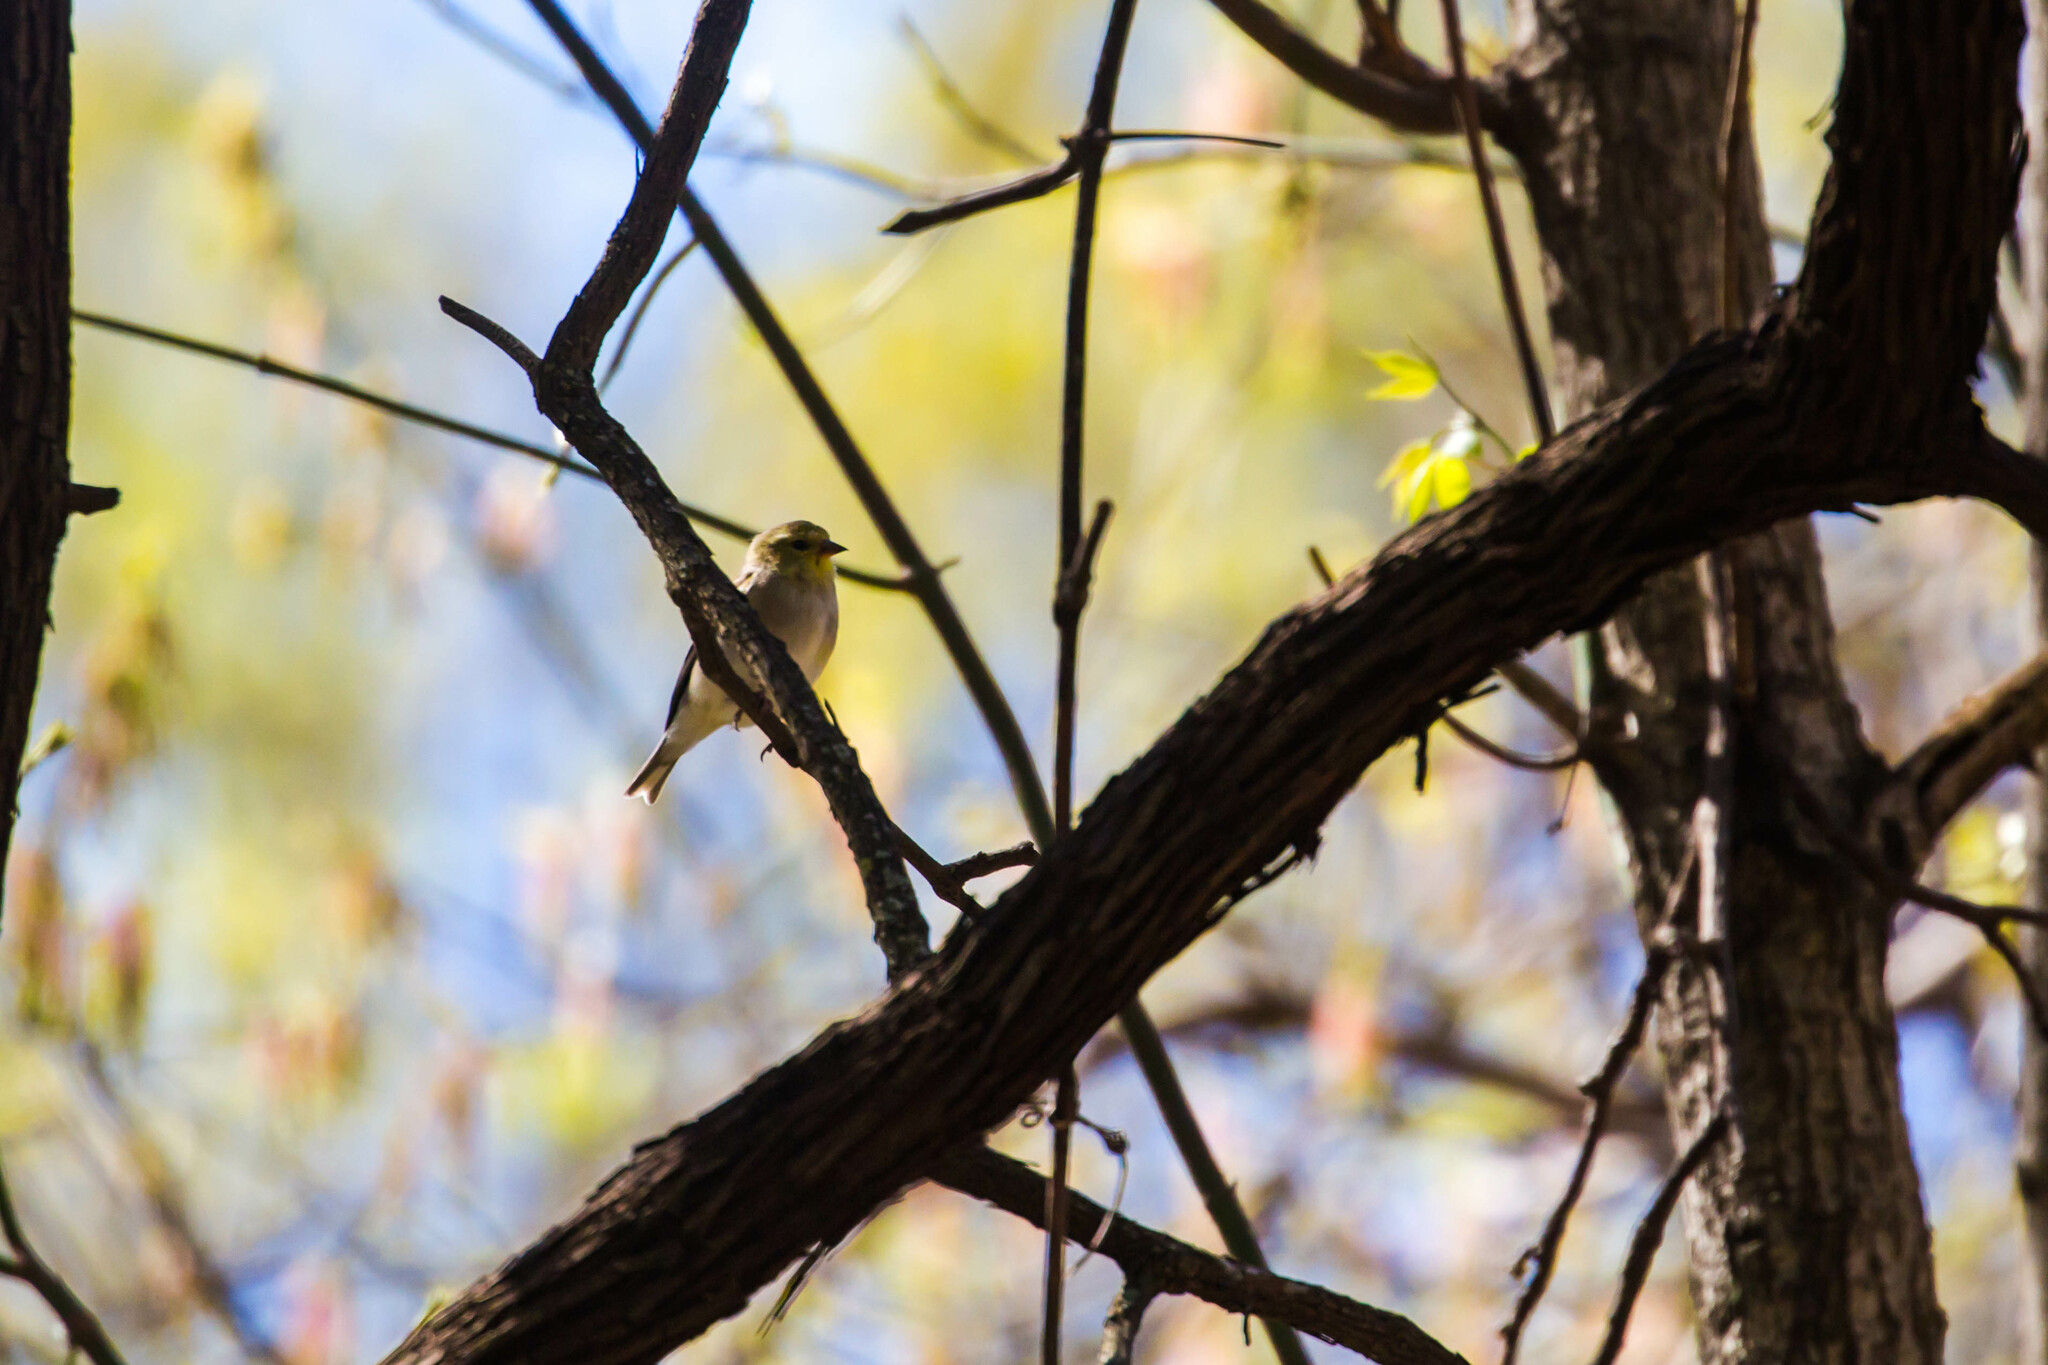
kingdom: Animalia
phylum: Chordata
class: Aves
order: Passeriformes
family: Fringillidae
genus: Spinus
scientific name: Spinus tristis
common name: American goldfinch
